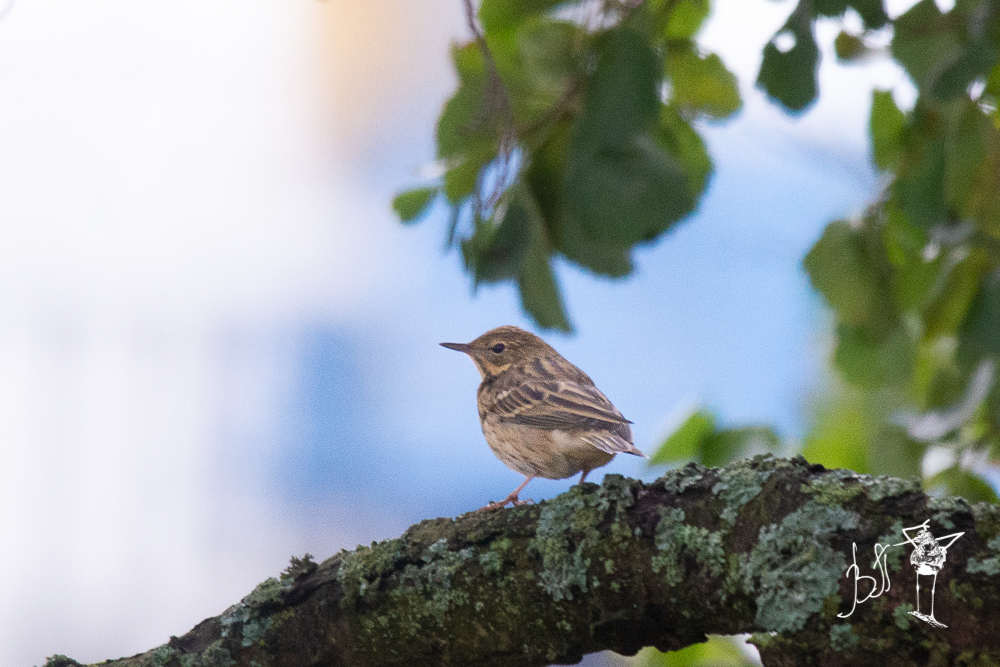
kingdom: Animalia
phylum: Chordata
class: Aves
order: Passeriformes
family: Motacillidae
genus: Anthus
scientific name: Anthus trivialis
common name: Tree pipit
